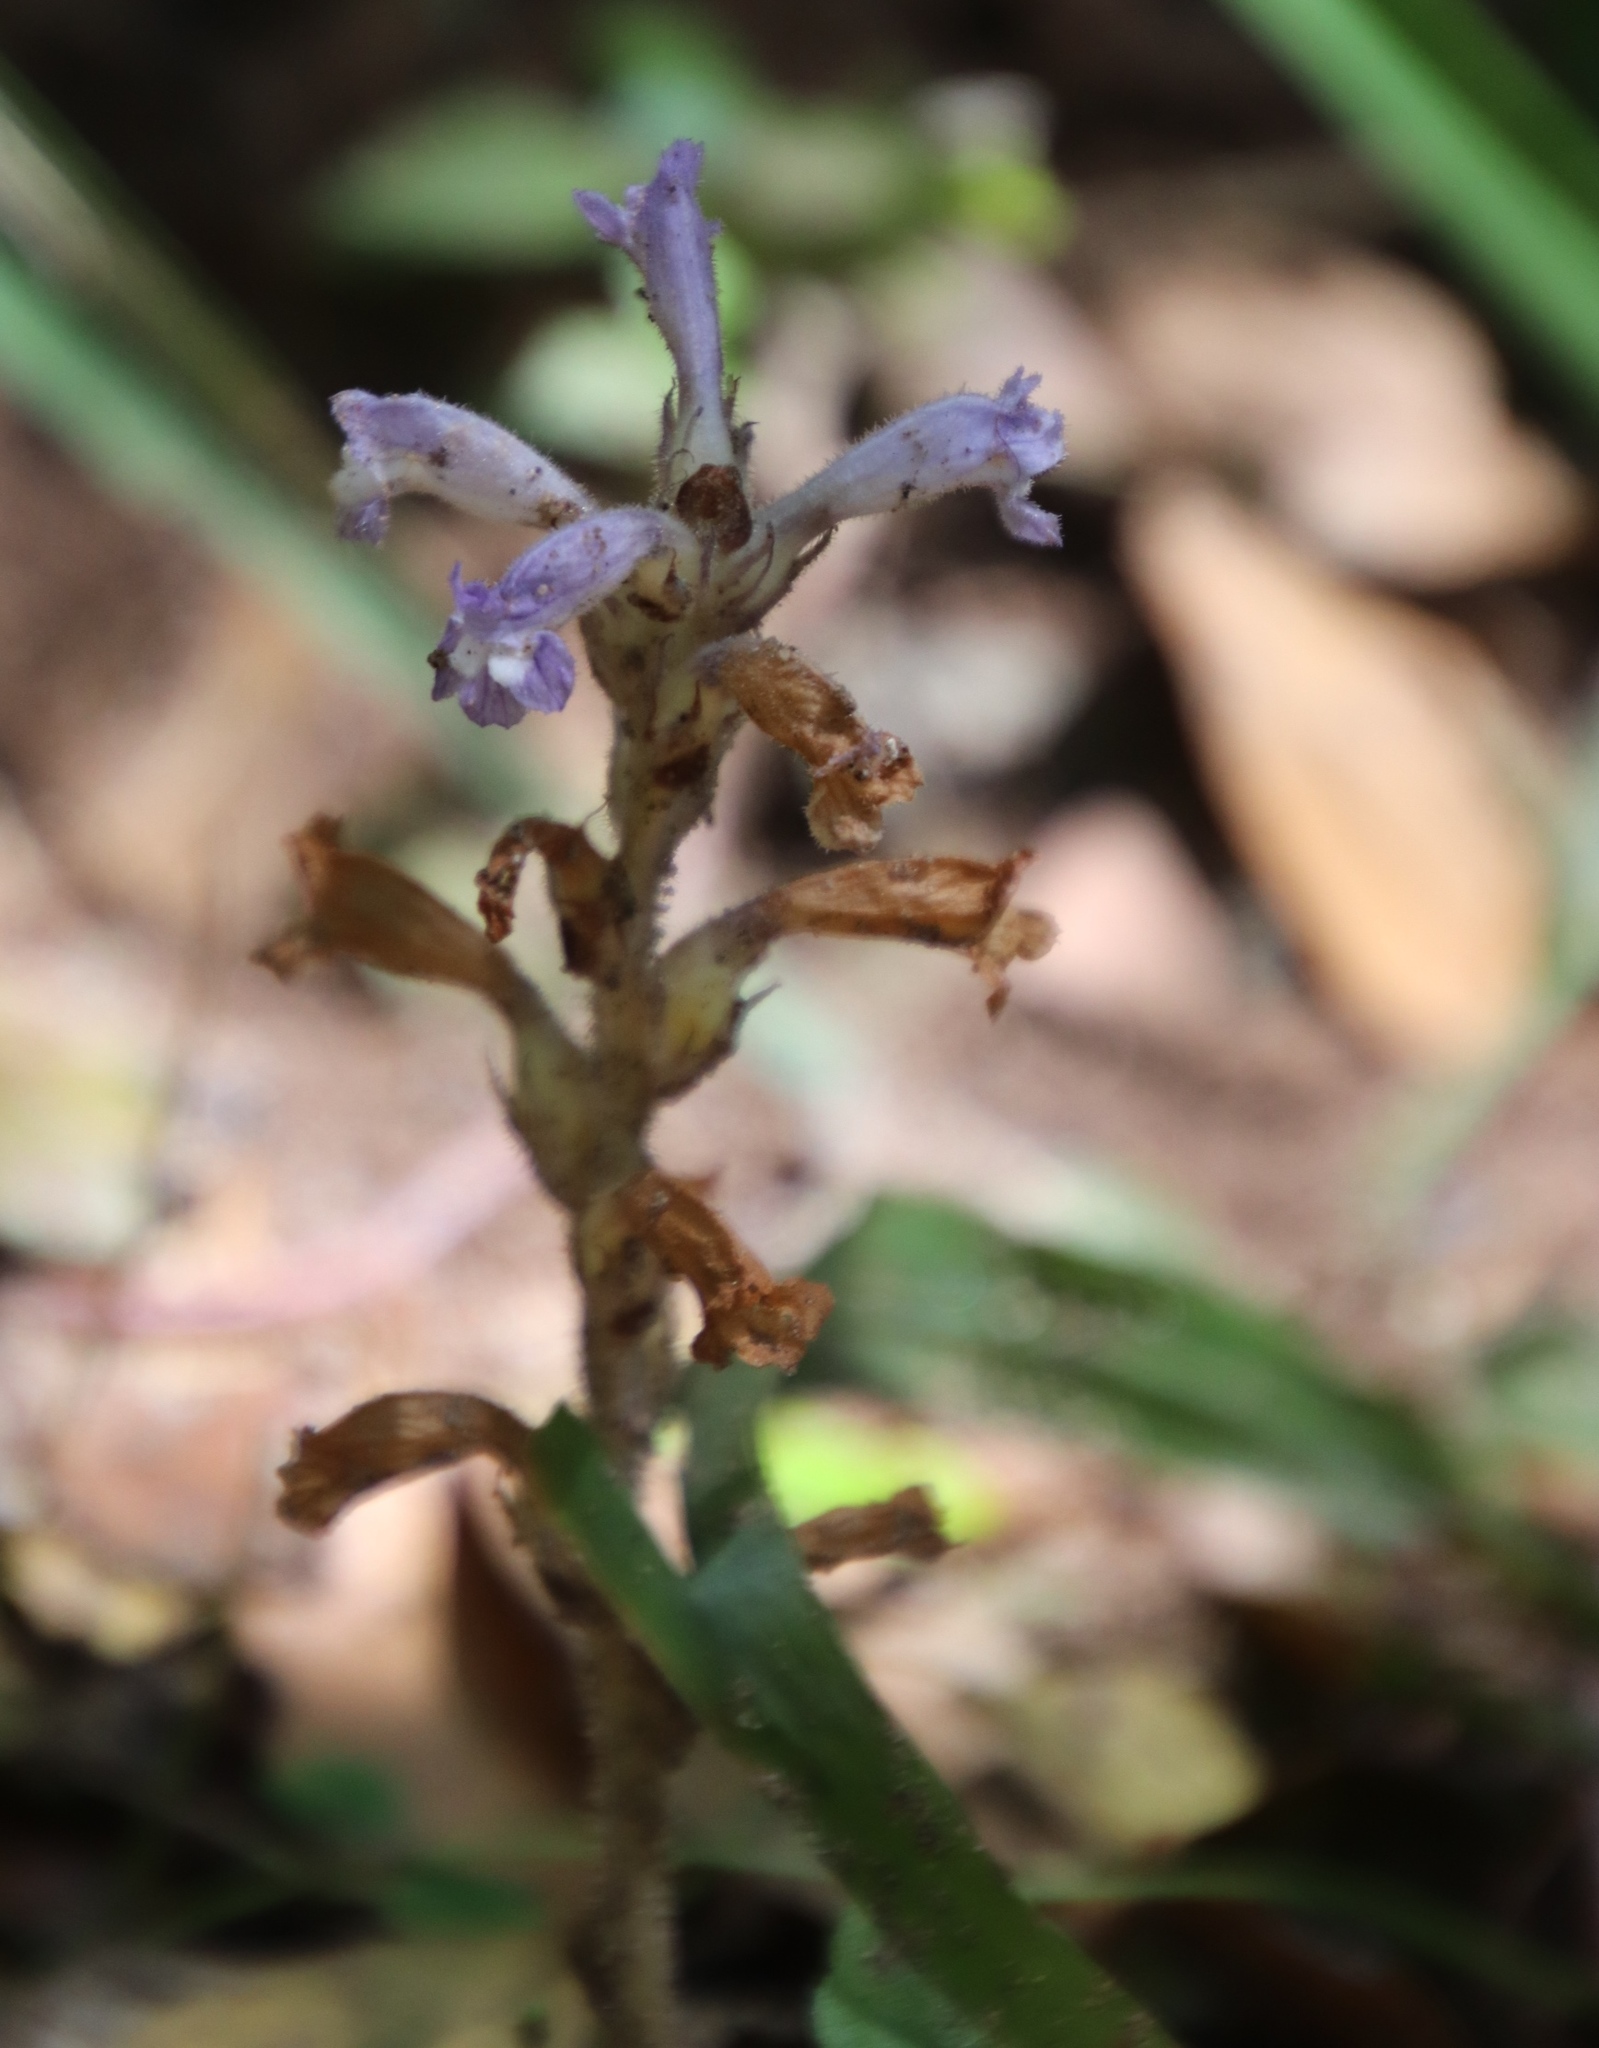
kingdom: Plantae
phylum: Tracheophyta
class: Magnoliopsida
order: Lamiales
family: Orobanchaceae
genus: Phelipanche
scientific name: Phelipanche mutelii
